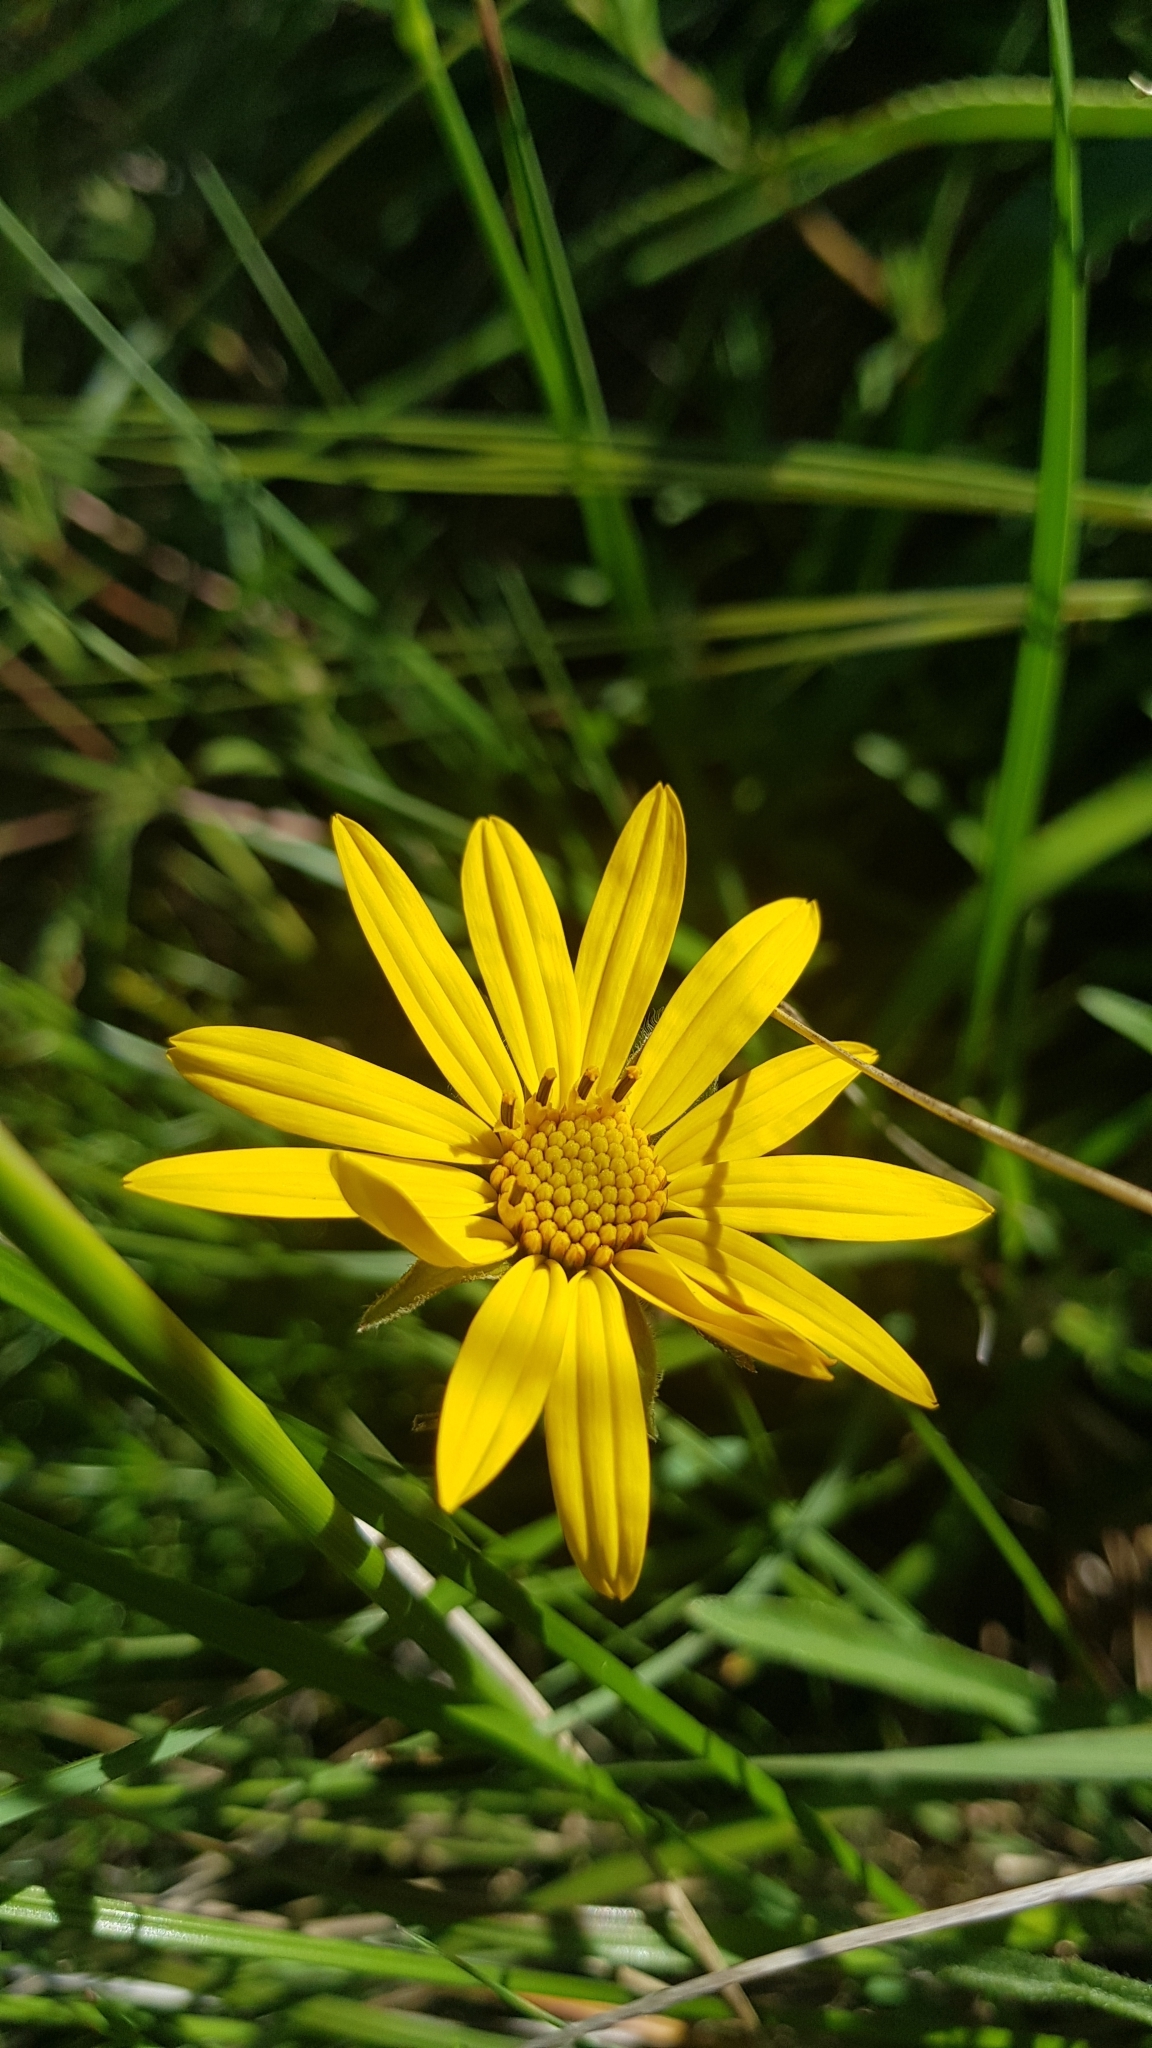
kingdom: Plantae
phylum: Tracheophyta
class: Magnoliopsida
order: Asterales
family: Asteraceae
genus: Wedelia
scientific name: Wedelia montevidensis
